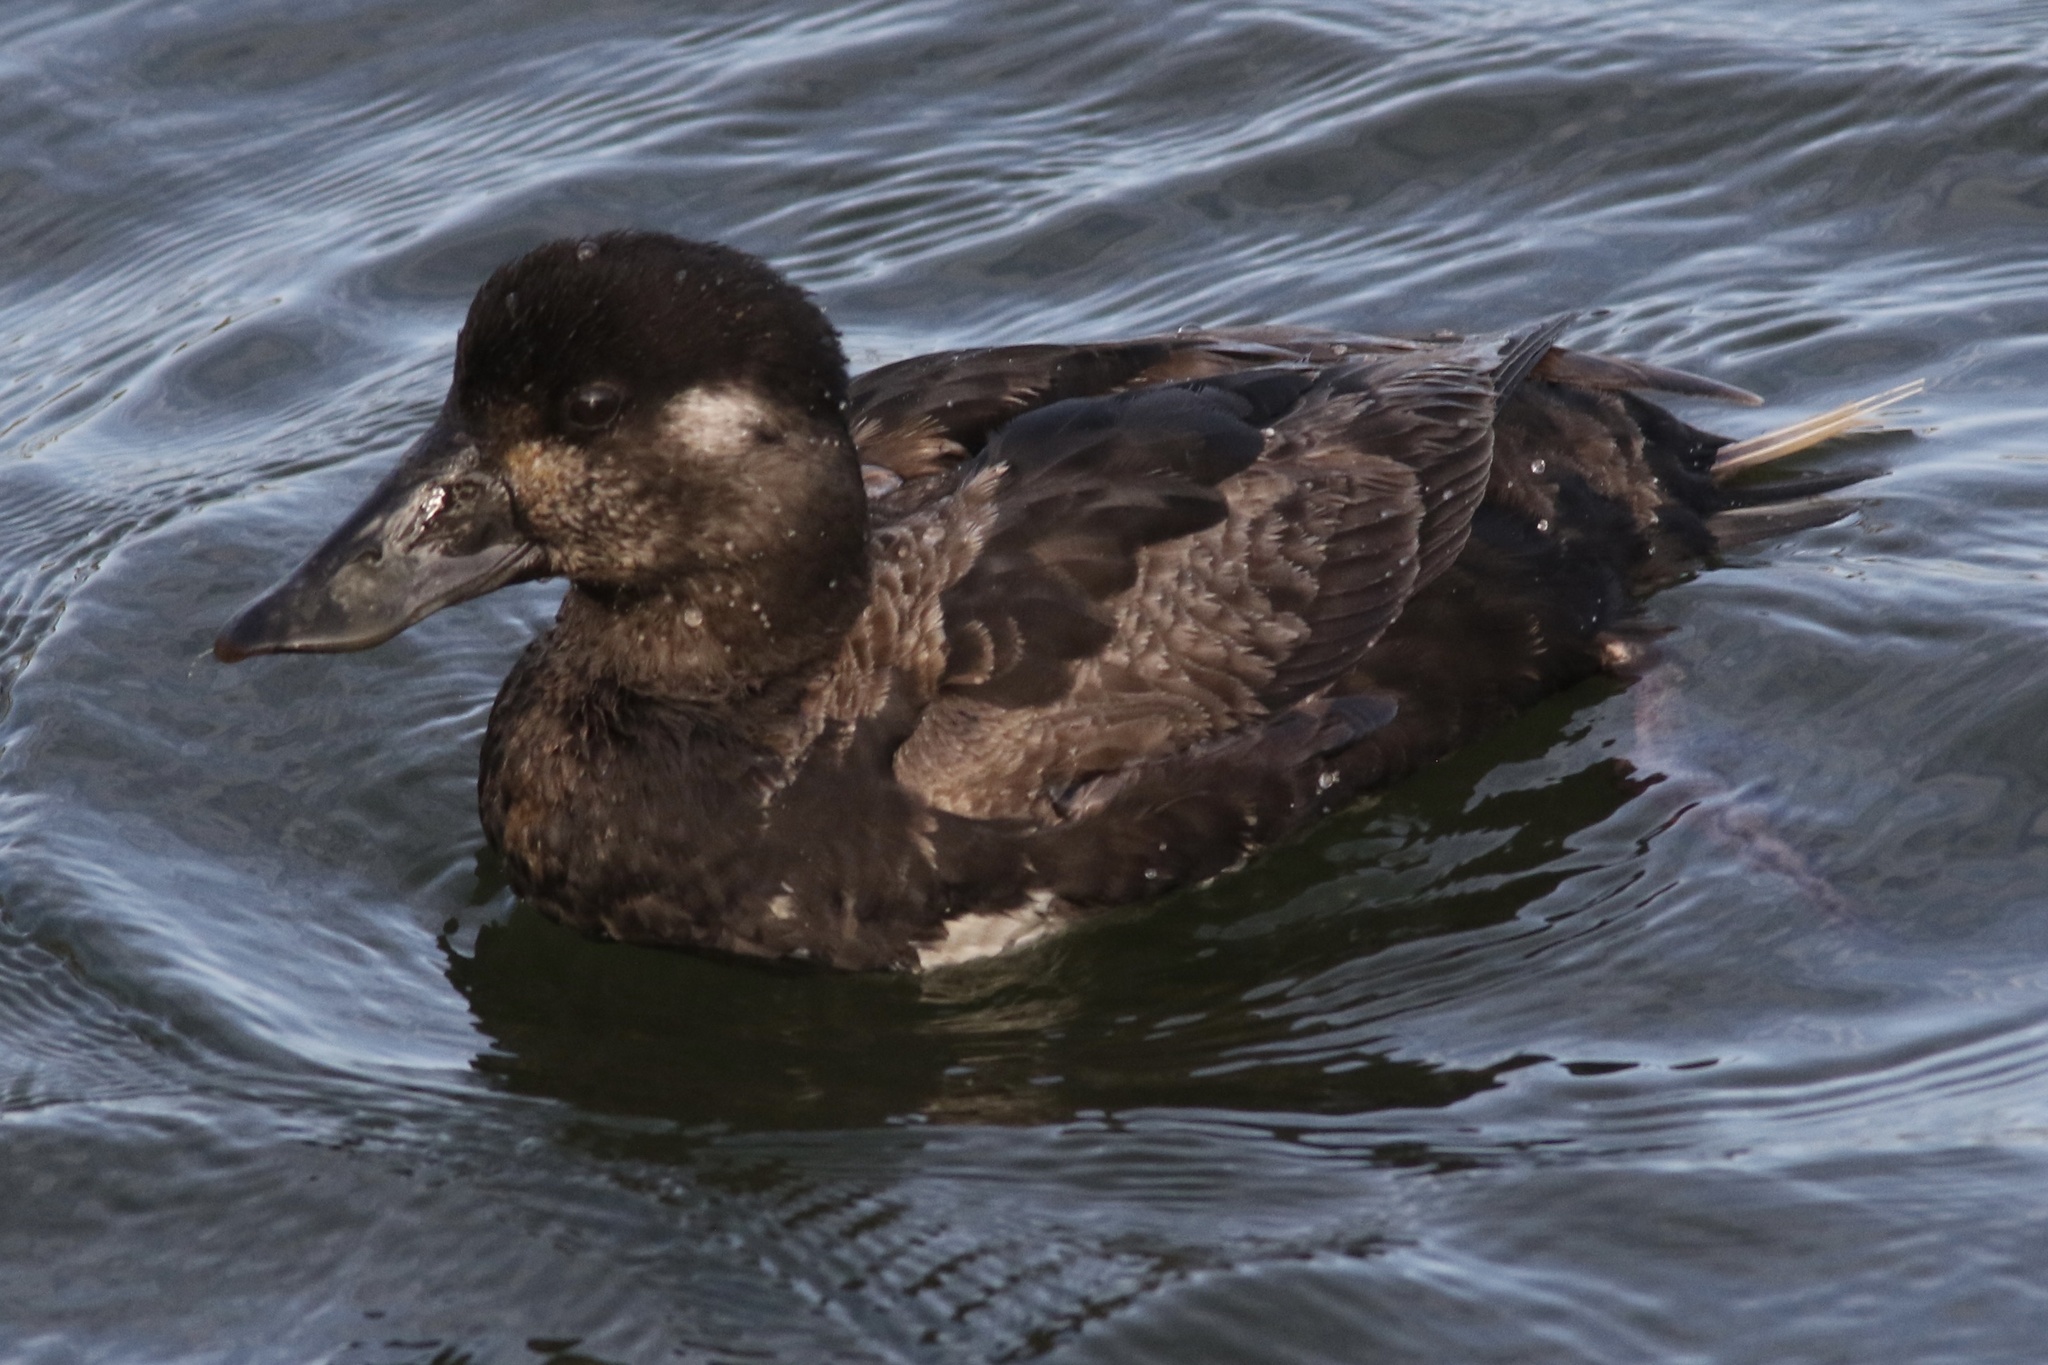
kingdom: Animalia
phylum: Chordata
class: Aves
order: Anseriformes
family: Anatidae
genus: Melanitta
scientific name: Melanitta perspicillata
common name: Surf scoter
